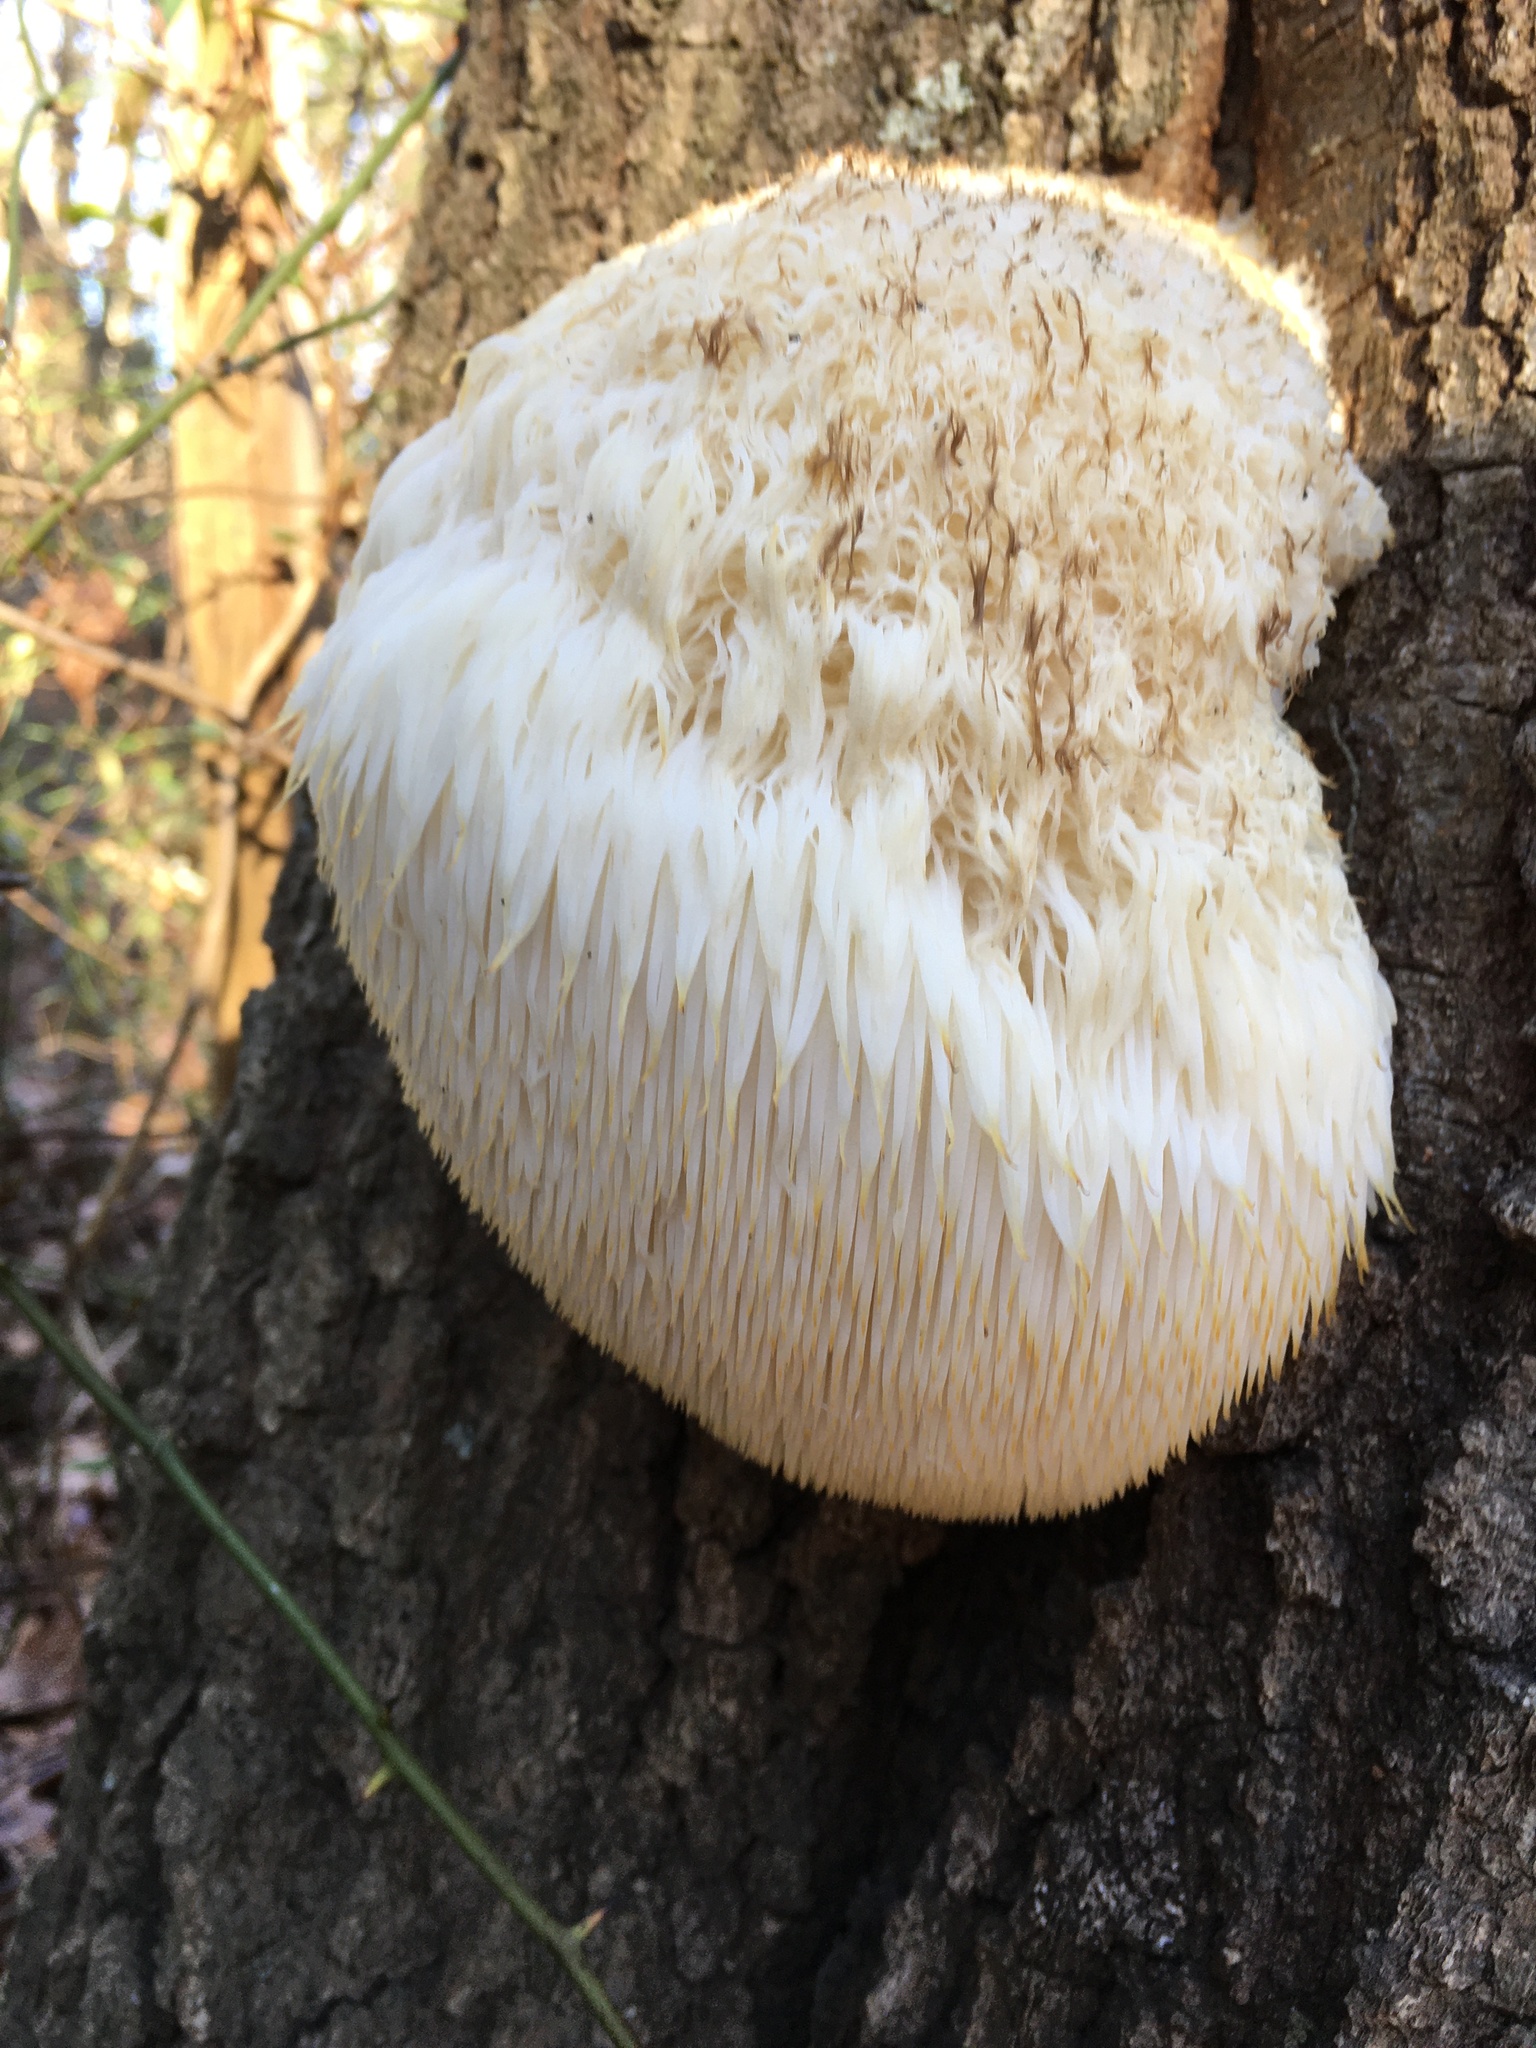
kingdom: Fungi
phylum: Basidiomycota
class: Agaricomycetes
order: Russulales
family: Hericiaceae
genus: Hericium
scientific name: Hericium erinaceus
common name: Bearded tooth
